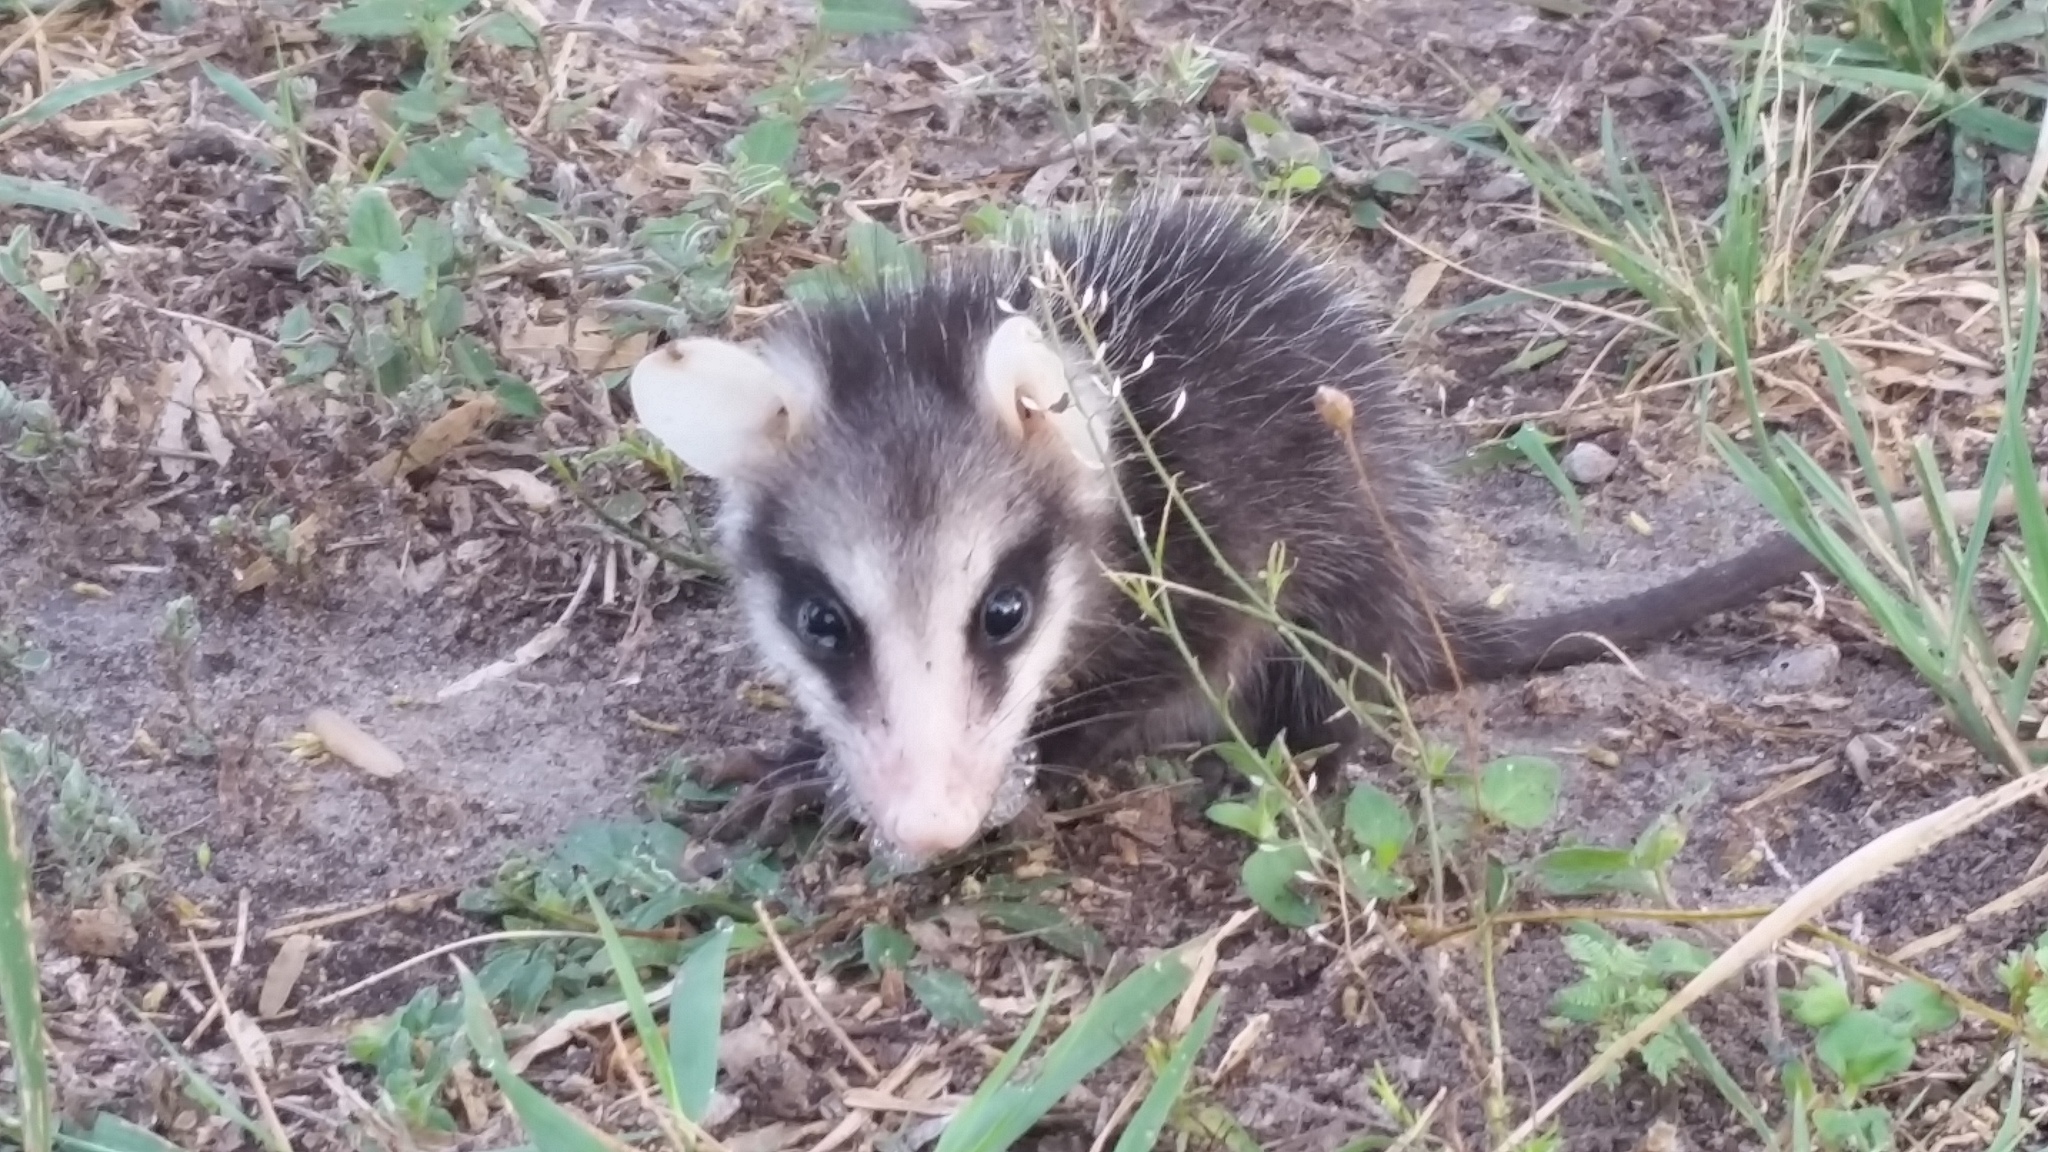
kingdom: Animalia
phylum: Chordata
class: Mammalia
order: Didelphimorphia
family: Didelphidae
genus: Didelphis
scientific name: Didelphis virginiana
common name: Virginia opossum
